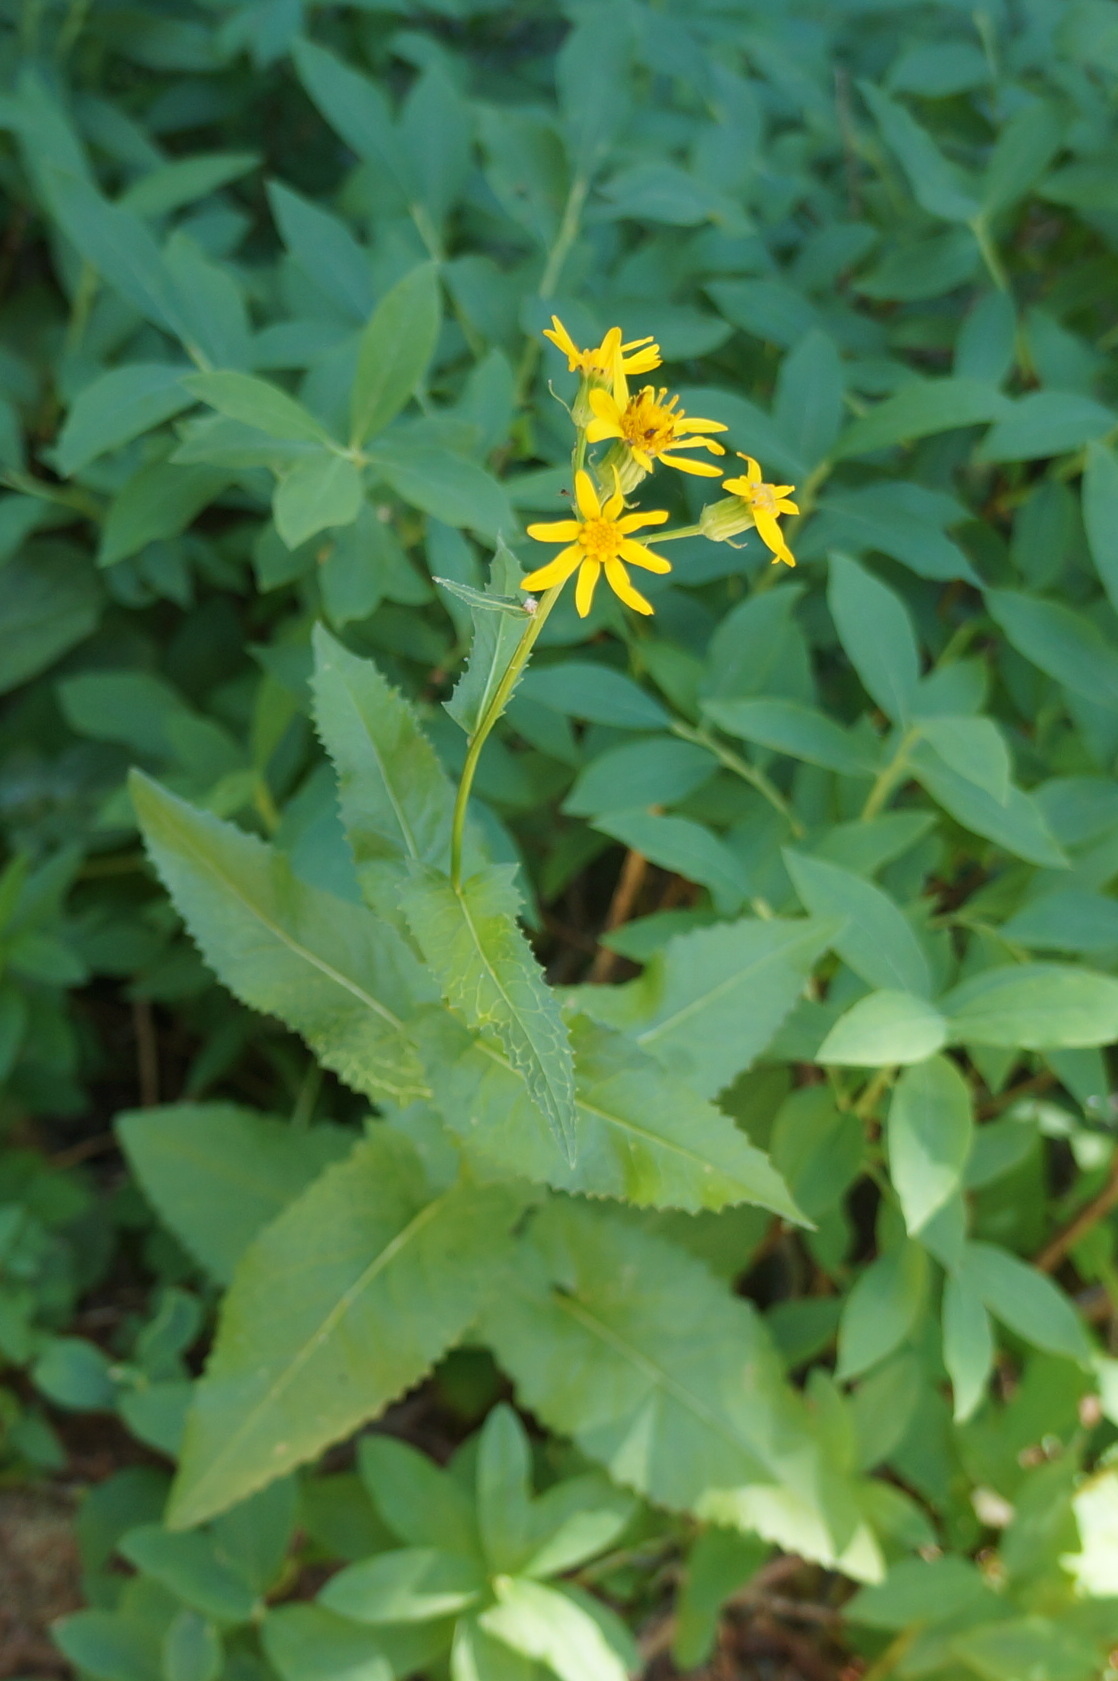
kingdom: Plantae
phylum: Tracheophyta
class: Magnoliopsida
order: Asterales
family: Asteraceae
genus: Senecio
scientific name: Senecio triangularis
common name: Arrowleaf butterweed
